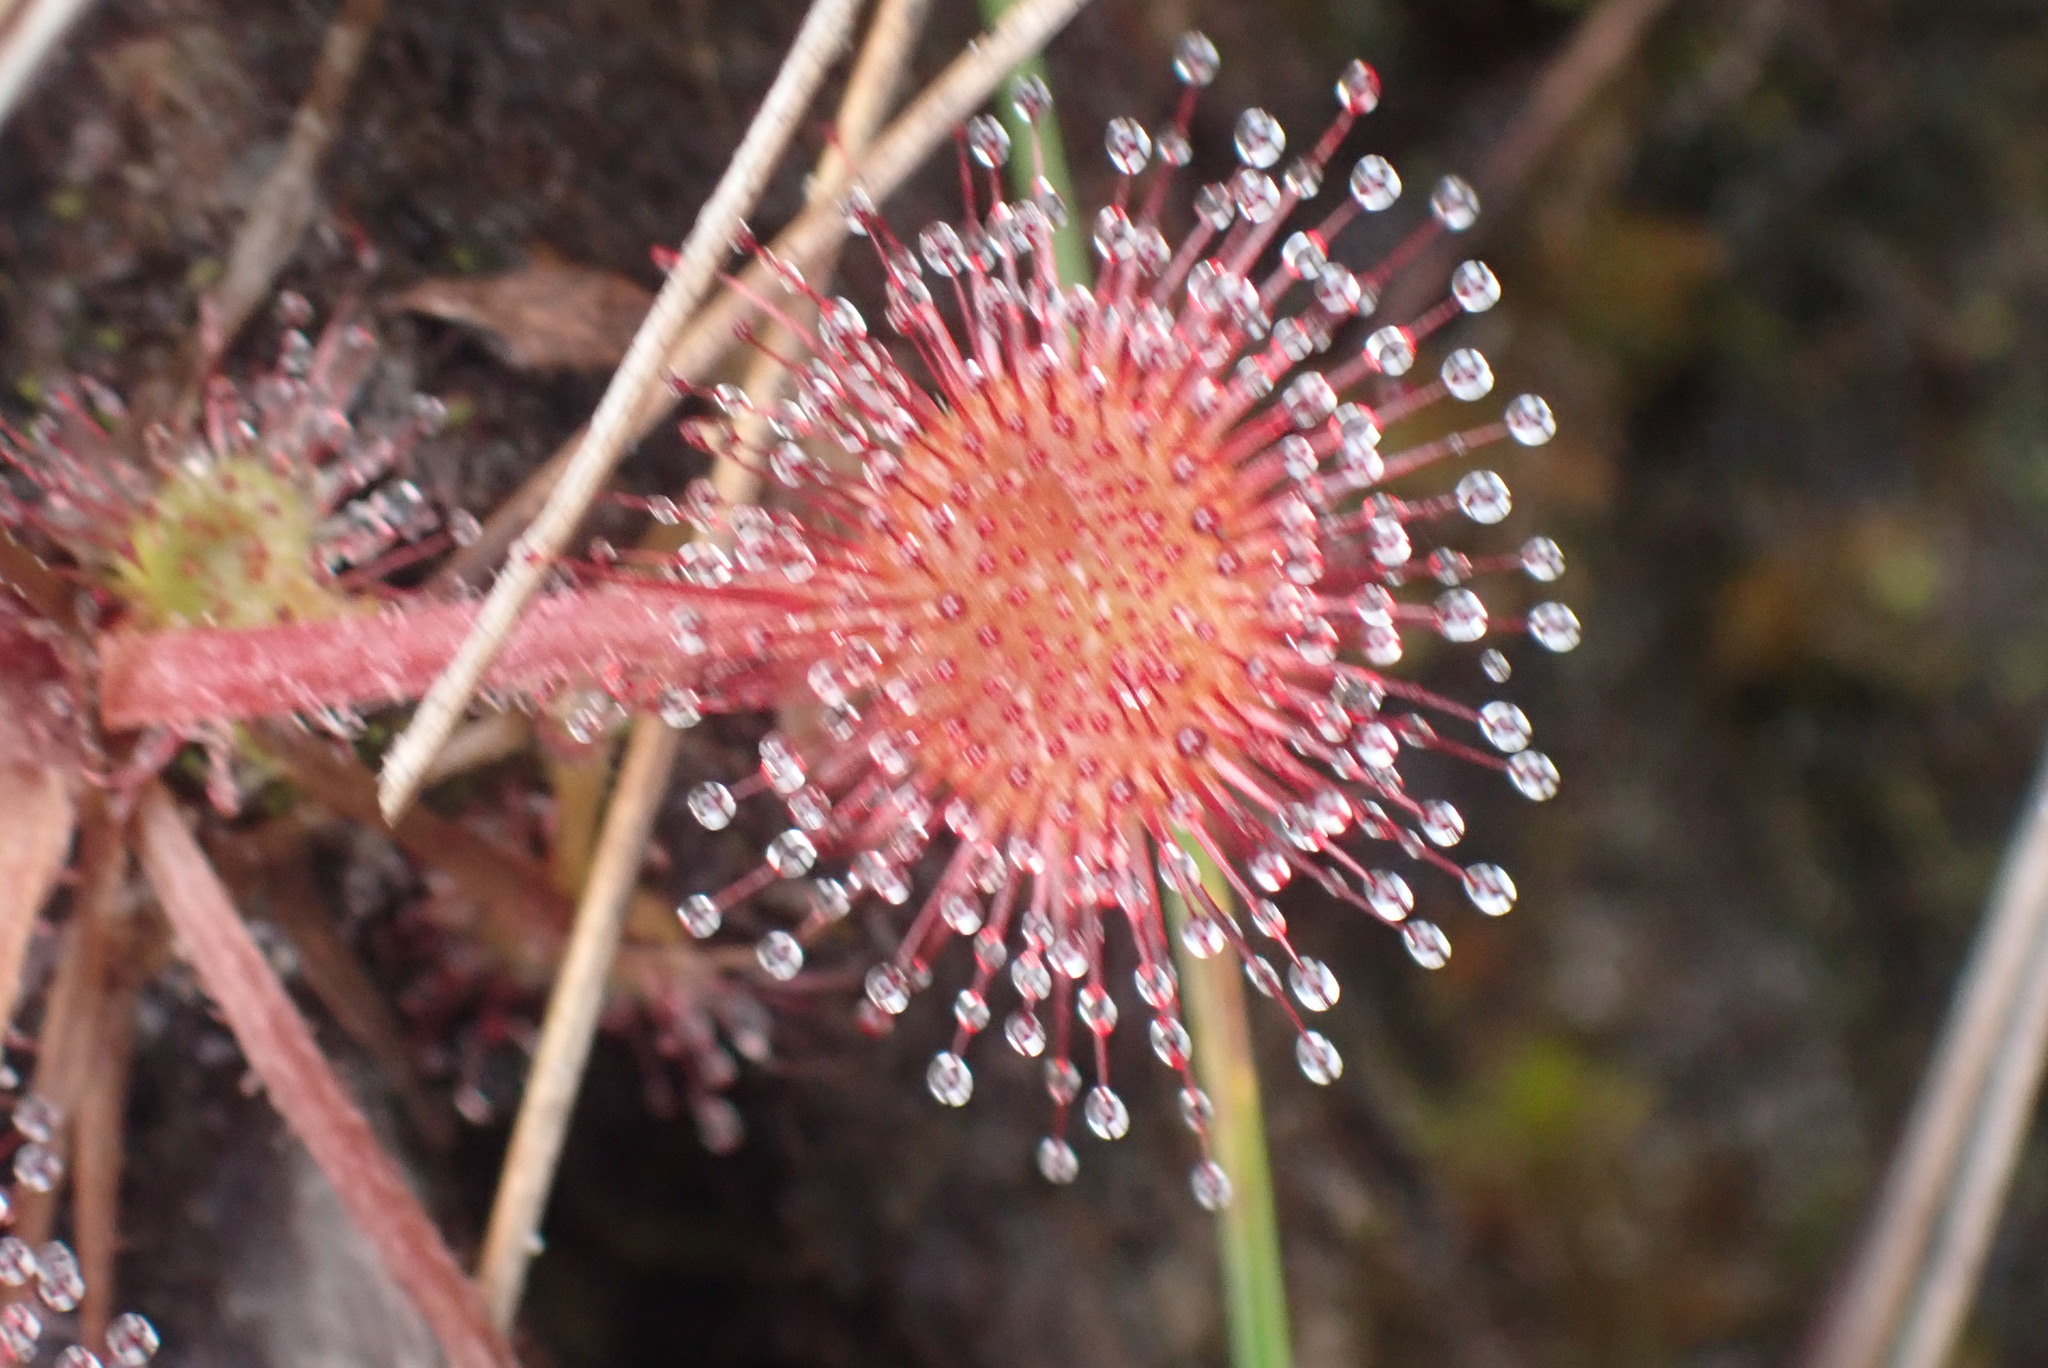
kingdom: Plantae
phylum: Tracheophyta
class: Magnoliopsida
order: Caryophyllales
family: Droseraceae
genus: Drosera
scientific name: Drosera rotundifolia
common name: Round-leaved sundew
